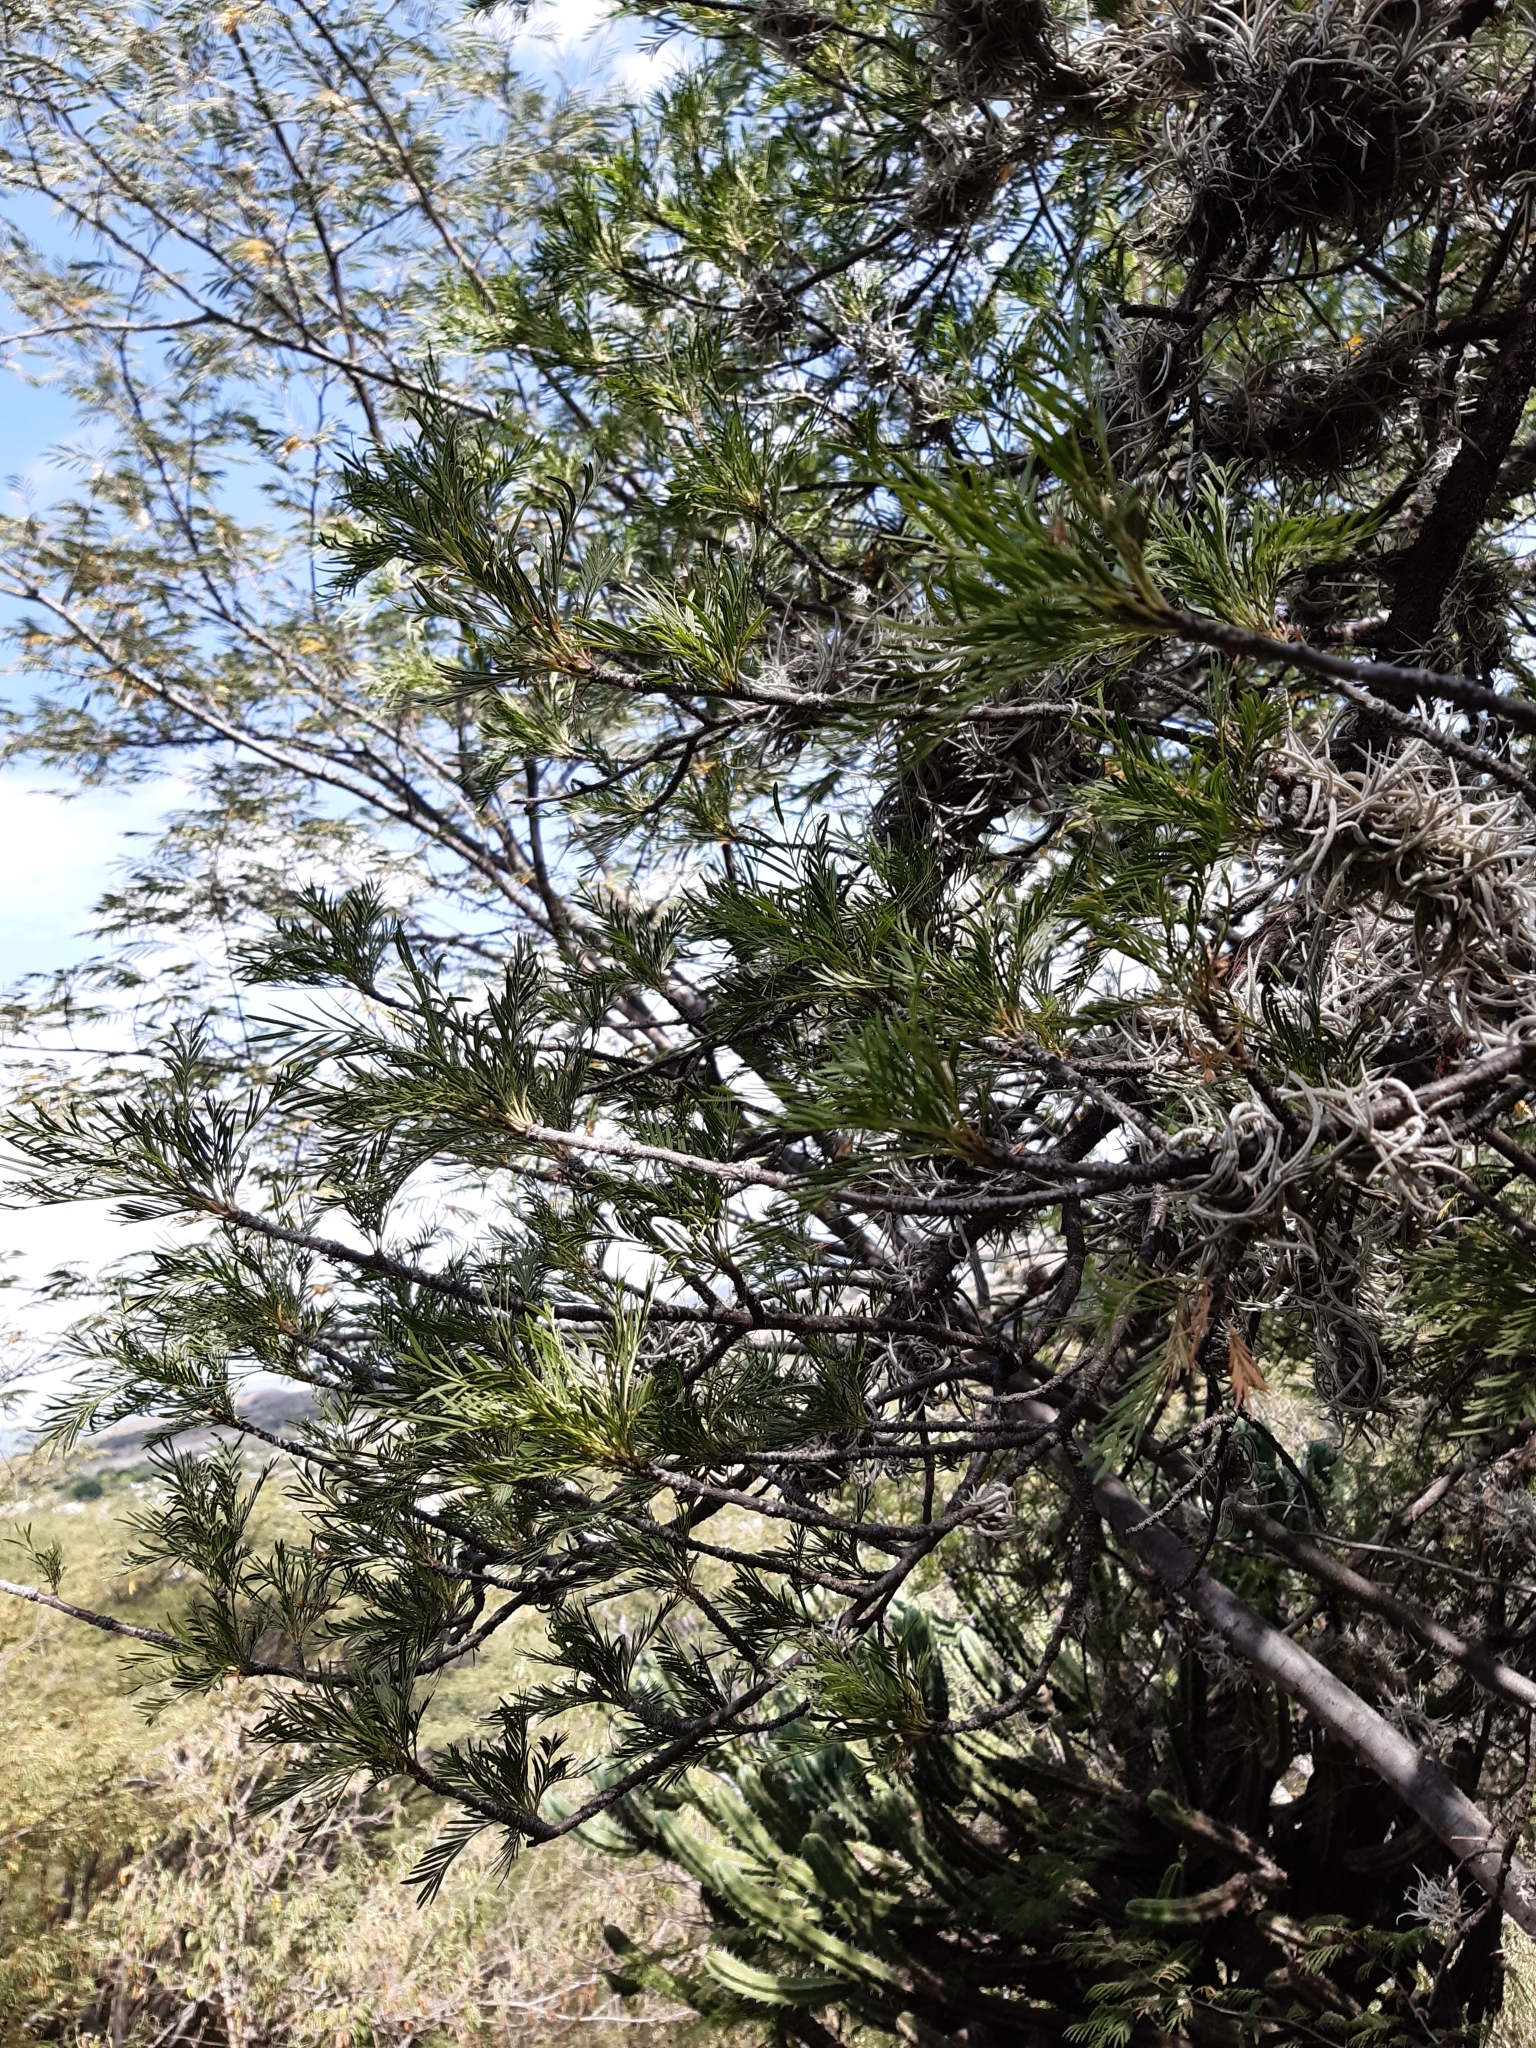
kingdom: Plantae
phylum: Tracheophyta
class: Magnoliopsida
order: Sapindales
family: Burseraceae
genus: Bursera
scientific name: Bursera galeottiana
